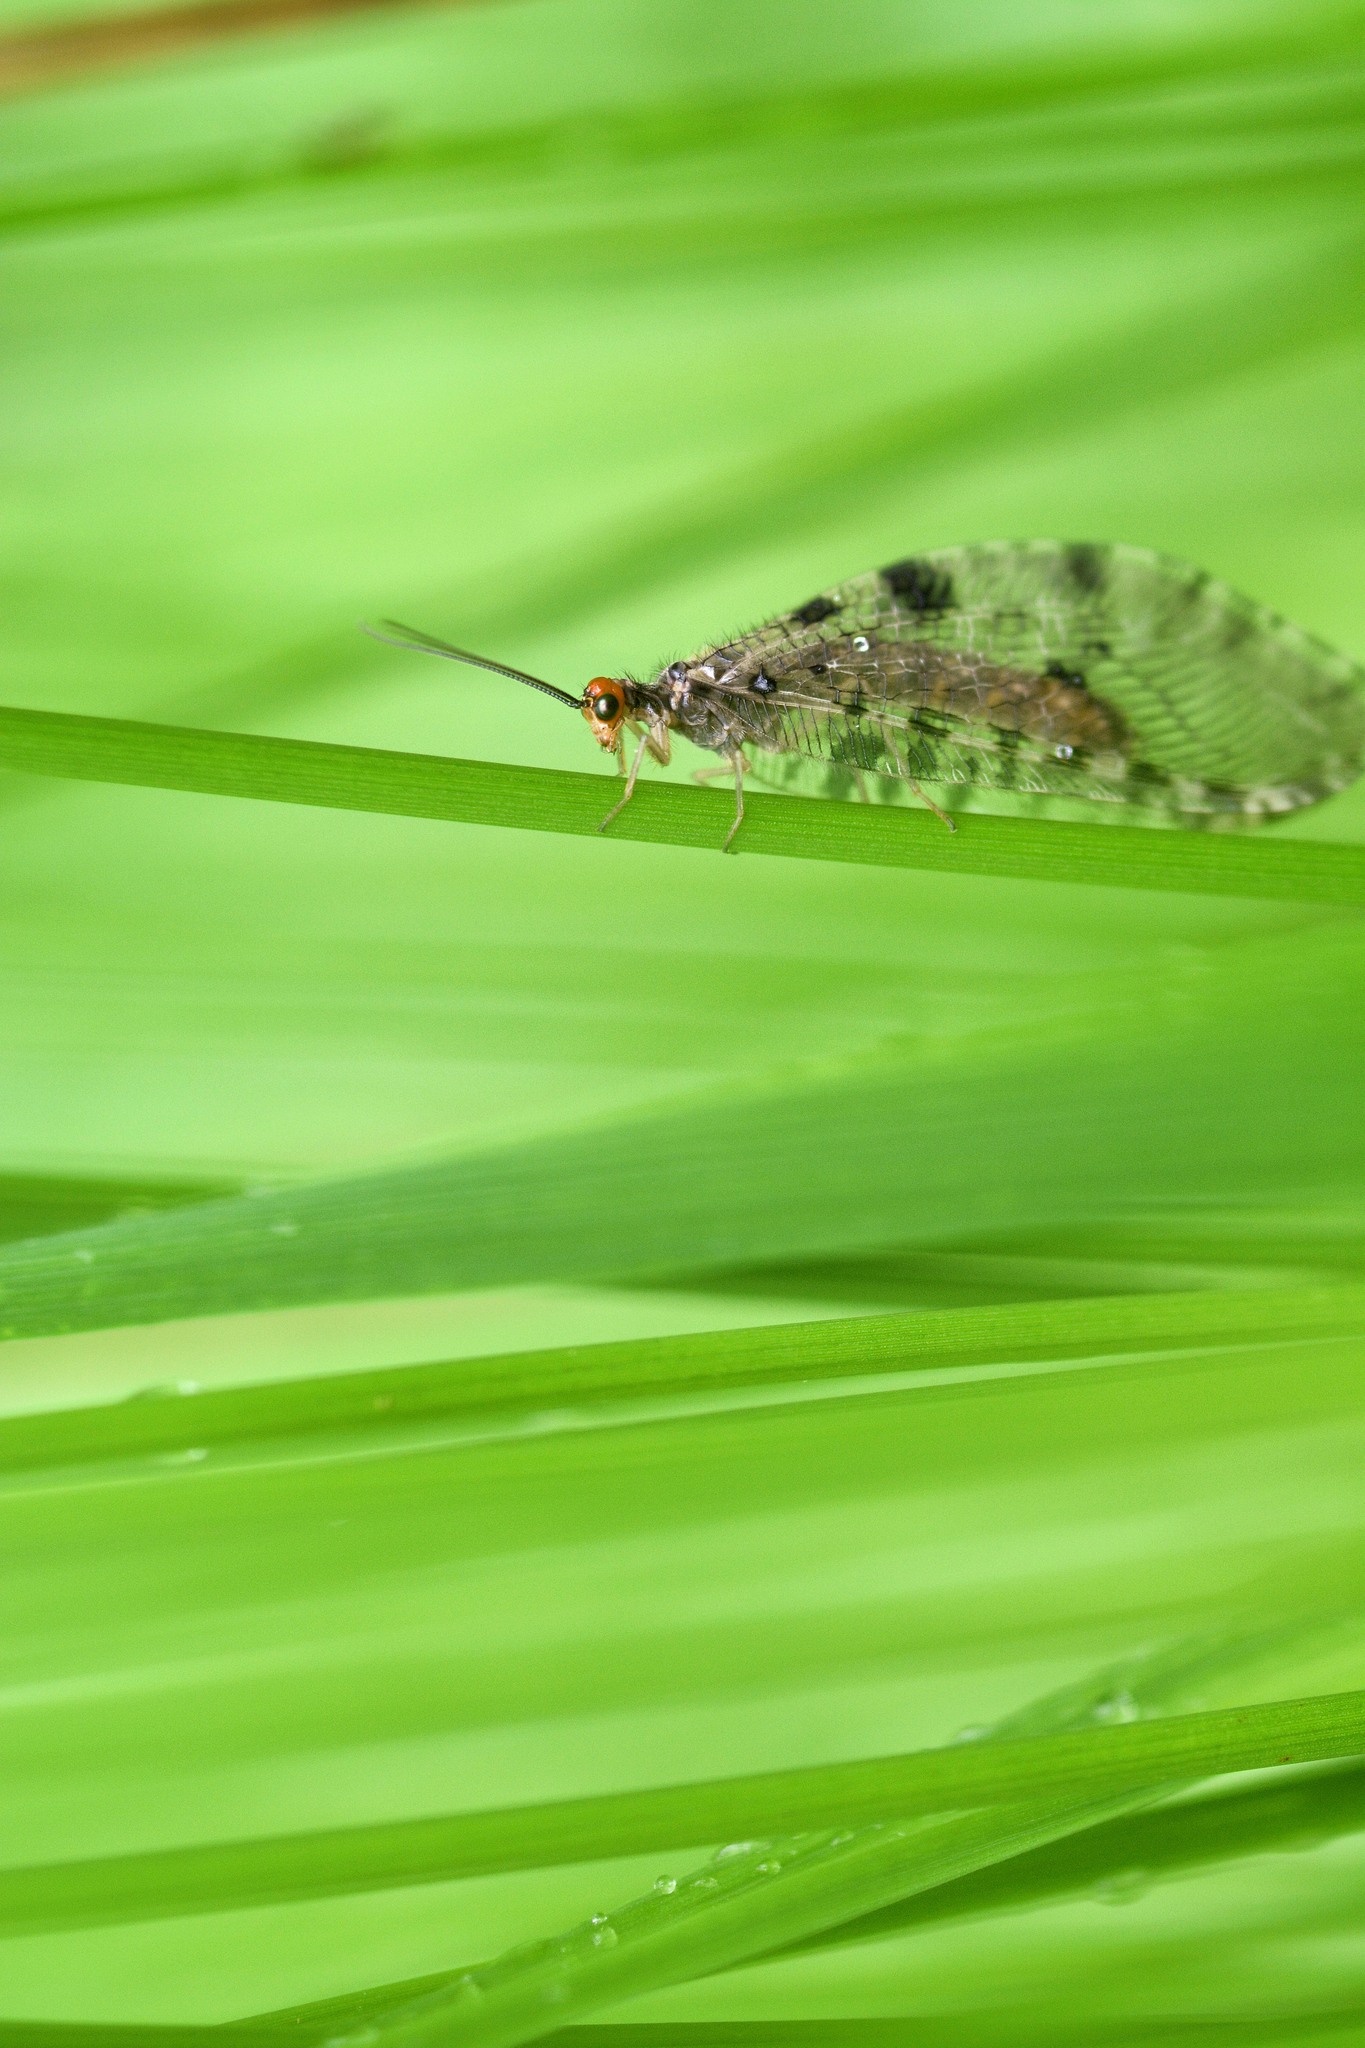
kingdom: Animalia
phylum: Arthropoda
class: Insecta
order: Neuroptera
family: Osmylidae
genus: Osmylus
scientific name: Osmylus fulvicephalus
